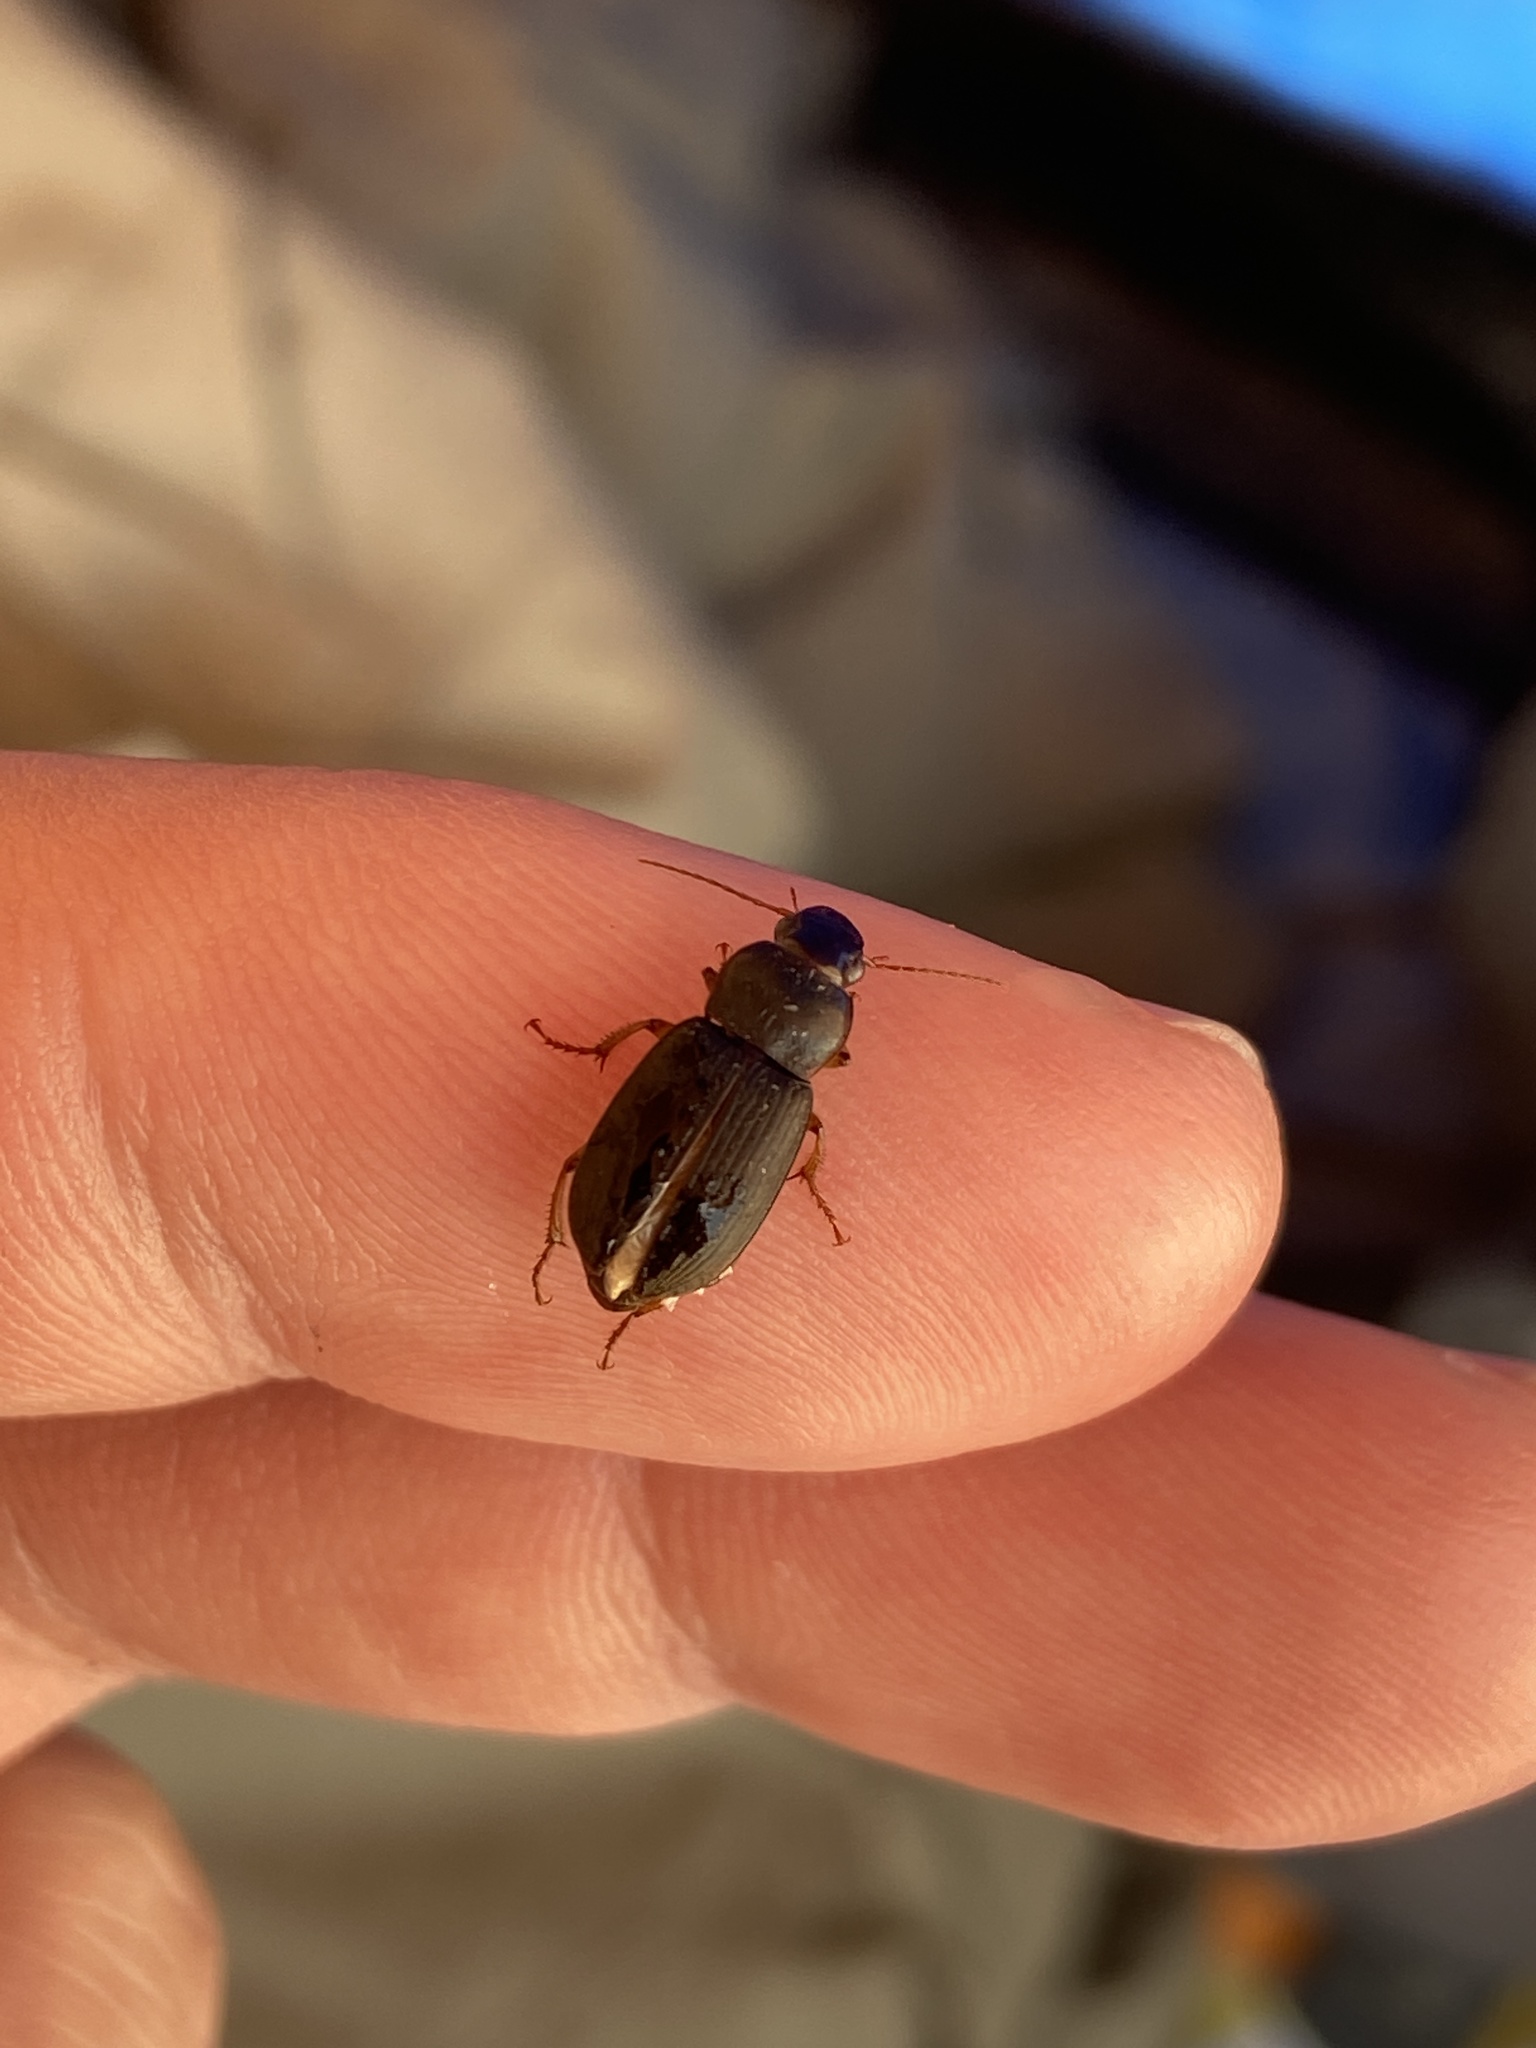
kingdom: Animalia
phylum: Arthropoda
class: Insecta
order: Coleoptera
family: Carabidae
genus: Harpalus
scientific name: Harpalus rufipes
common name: Strawberry harp ground beetle
